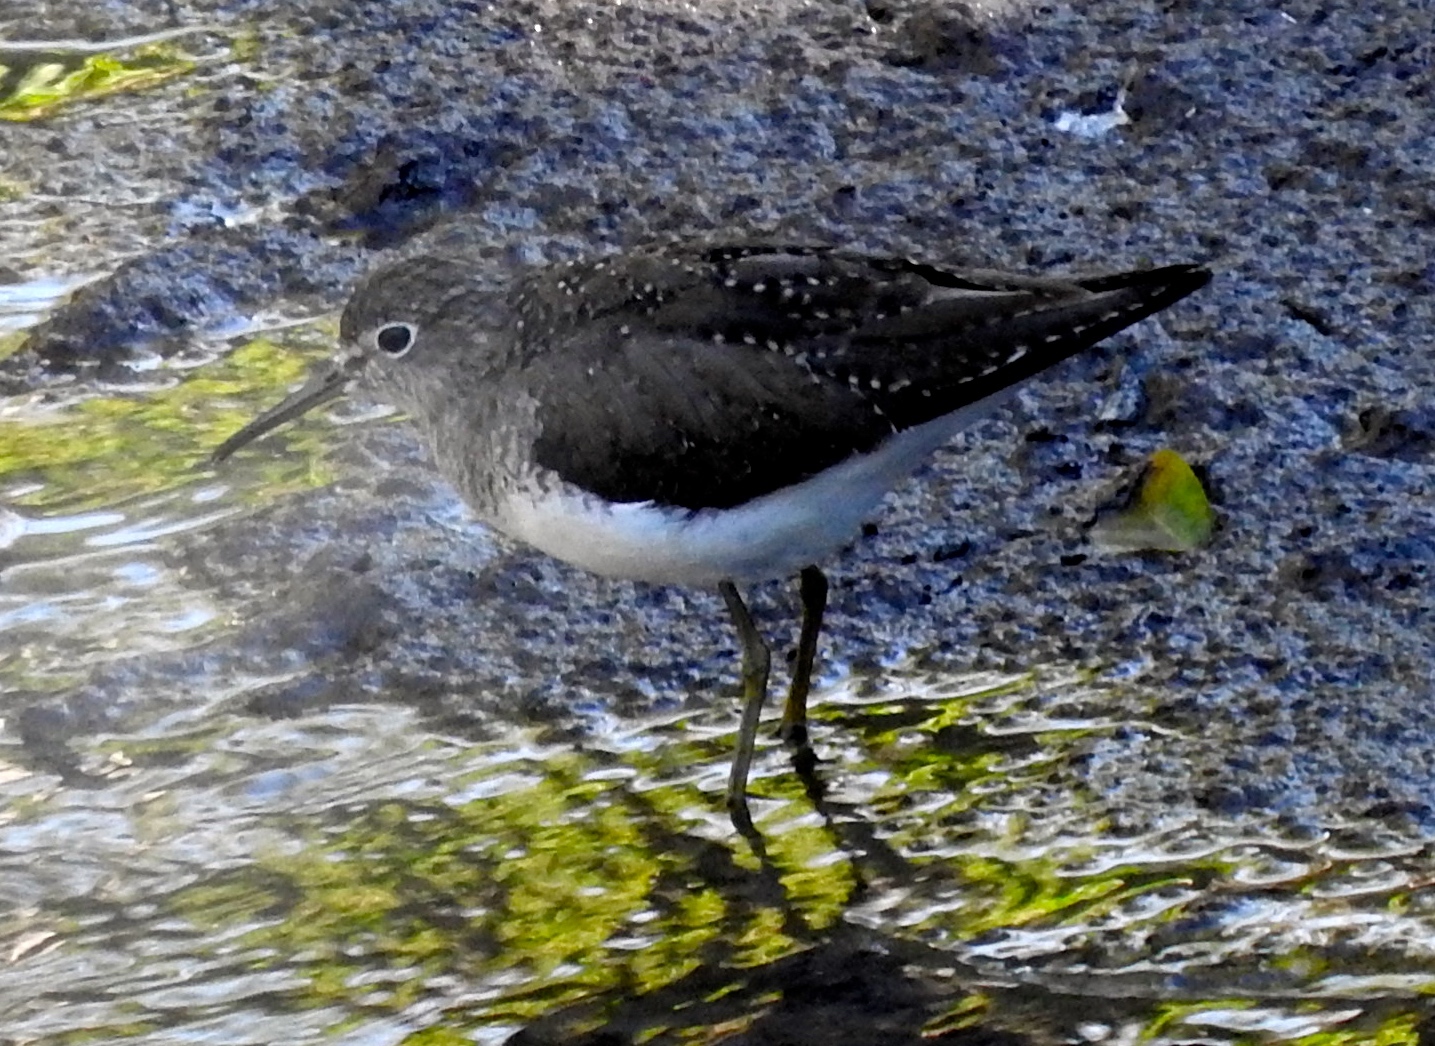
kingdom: Animalia
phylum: Chordata
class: Aves
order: Charadriiformes
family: Scolopacidae
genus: Tringa
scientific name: Tringa solitaria
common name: Solitary sandpiper
